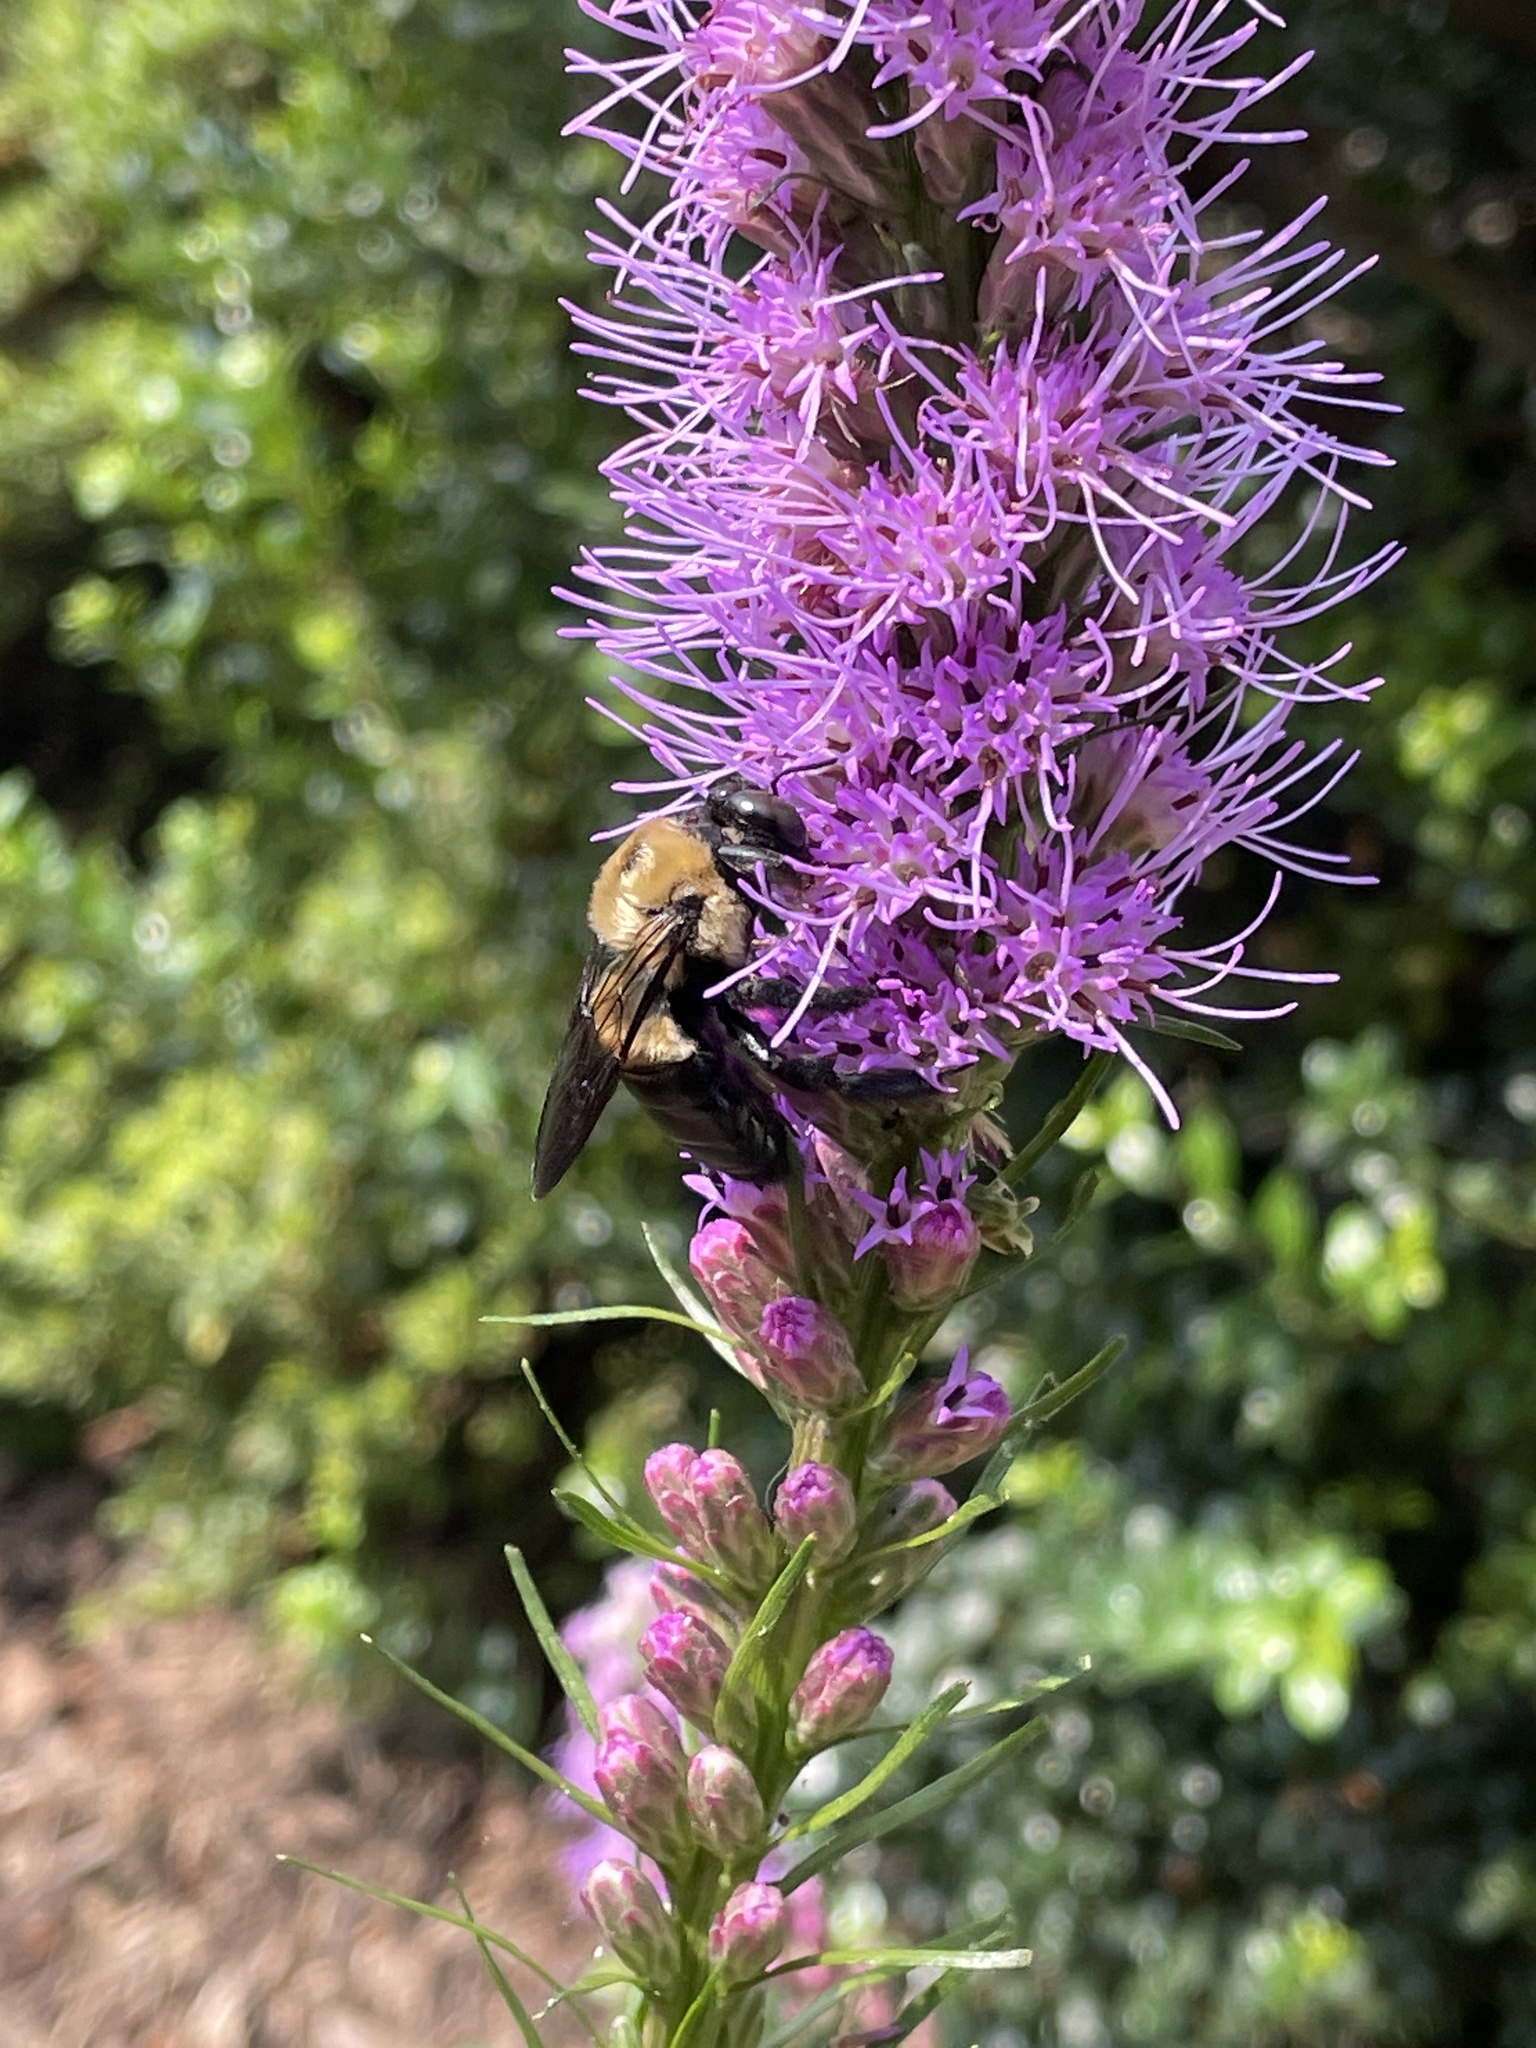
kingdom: Animalia
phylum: Arthropoda
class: Insecta
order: Hymenoptera
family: Apidae
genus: Xylocopa
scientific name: Xylocopa virginica
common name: Carpenter bee
